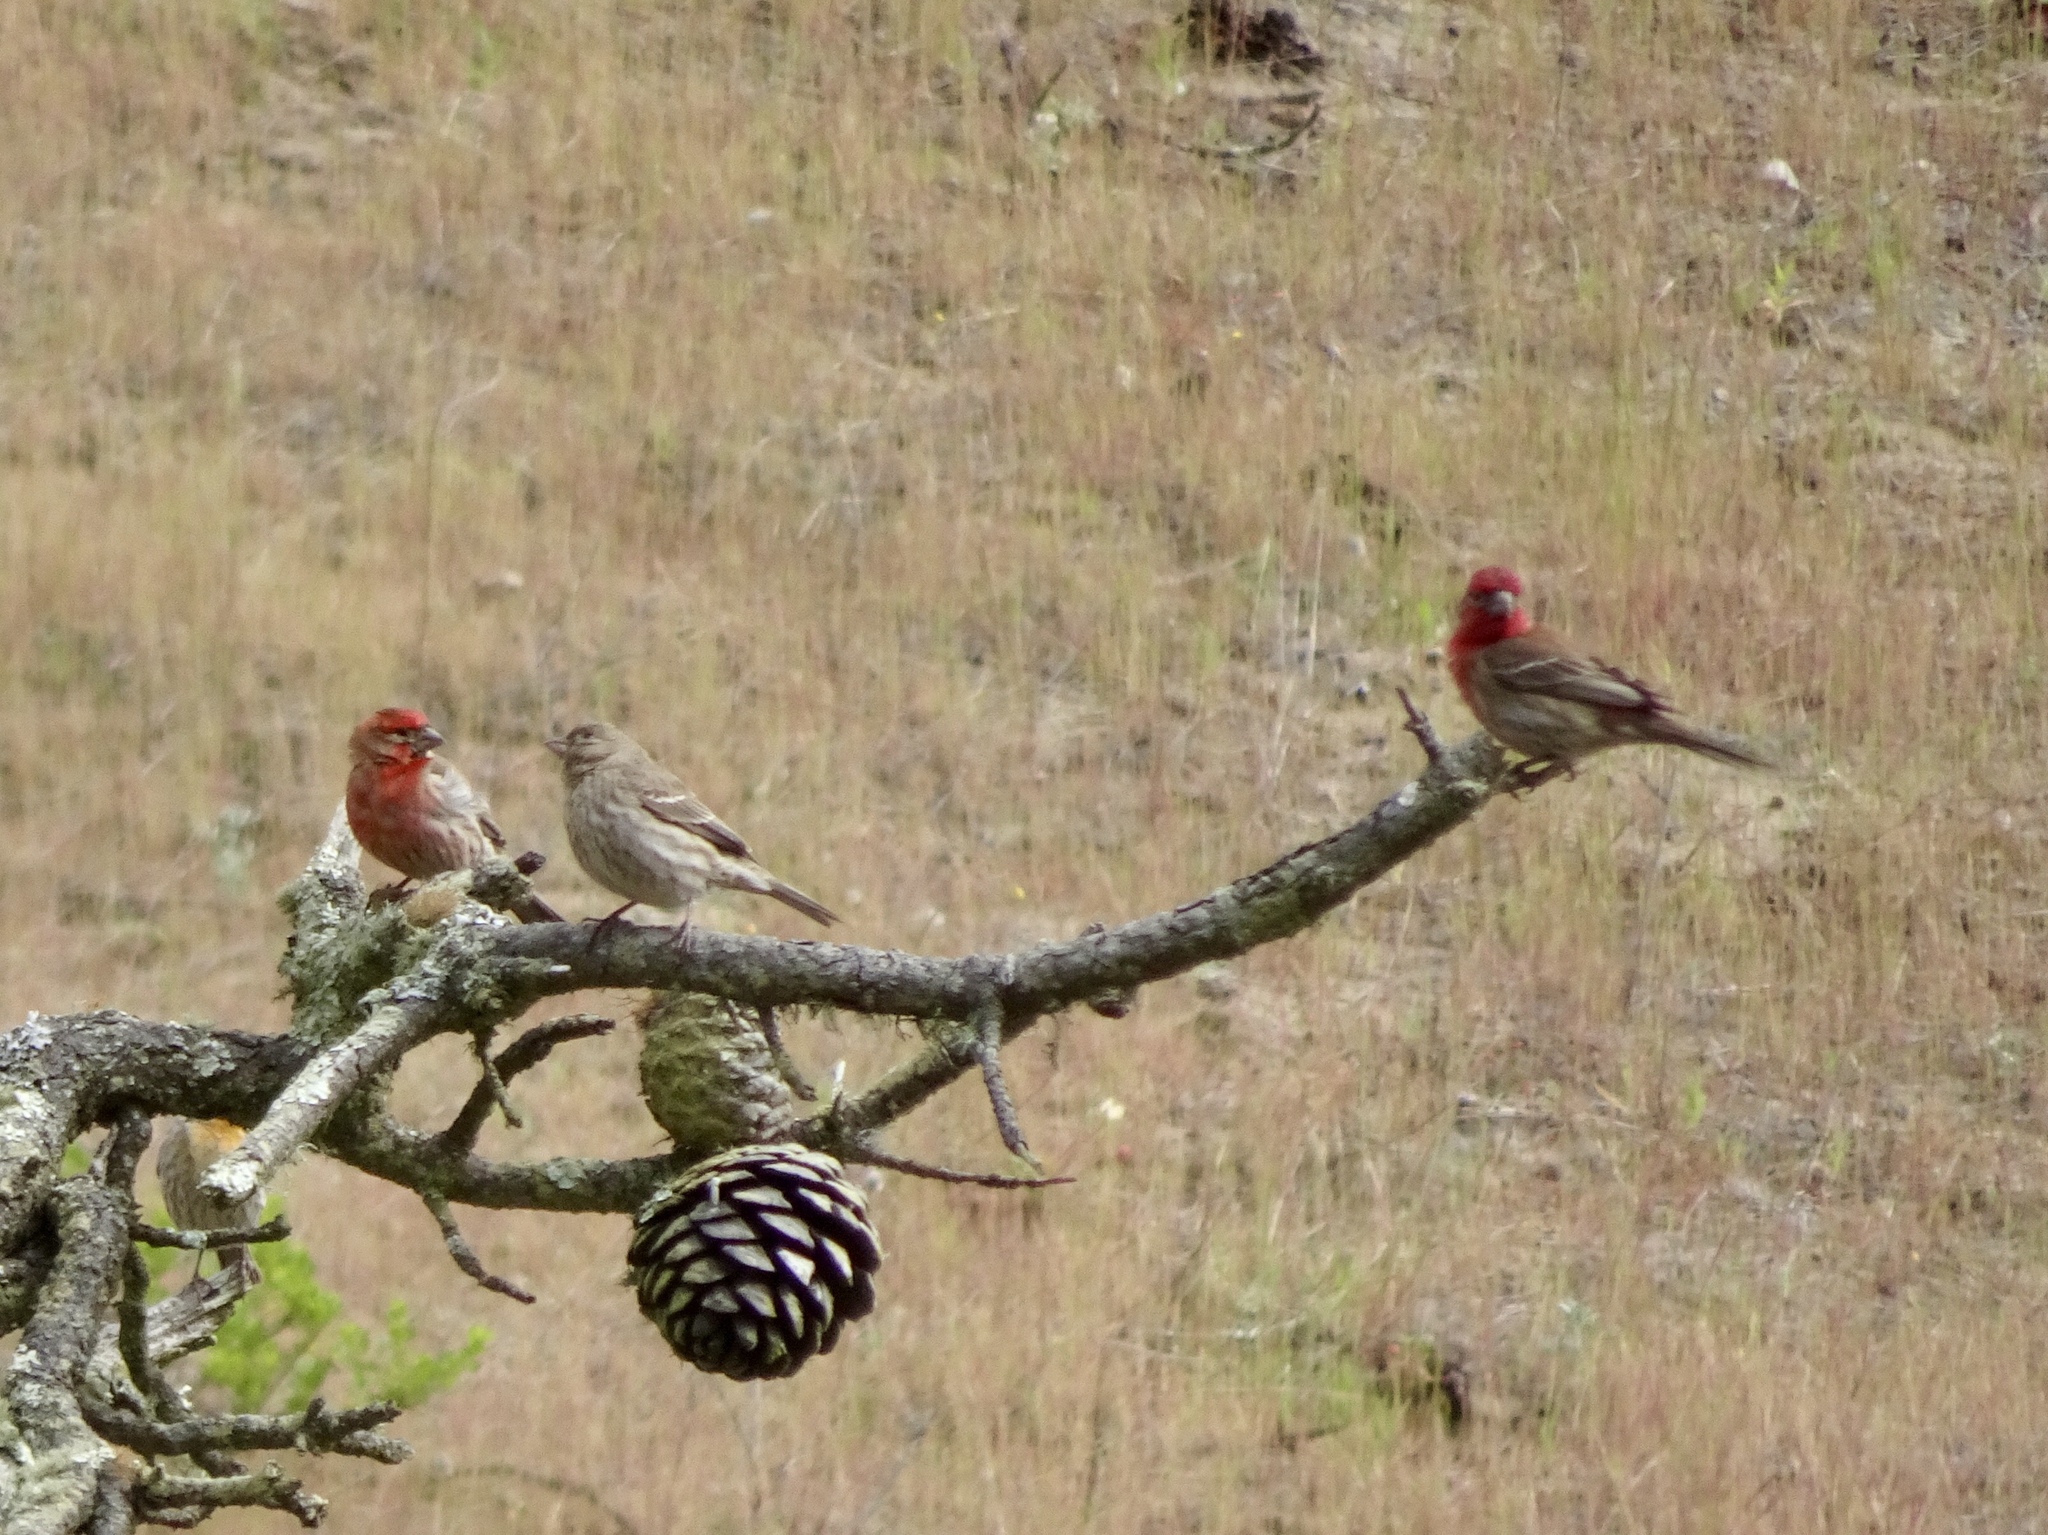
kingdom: Animalia
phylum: Chordata
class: Aves
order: Passeriformes
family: Fringillidae
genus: Haemorhous
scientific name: Haemorhous mexicanus
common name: House finch
